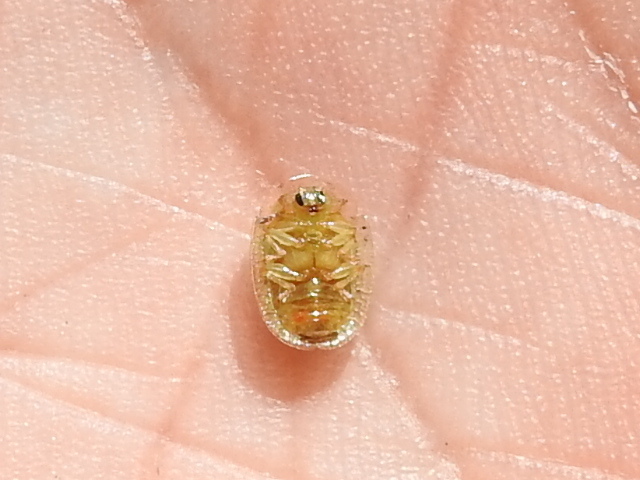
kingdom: Animalia
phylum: Arthropoda
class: Insecta
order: Coleoptera
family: Chrysomelidae
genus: Gratiana
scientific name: Gratiana pallidula
